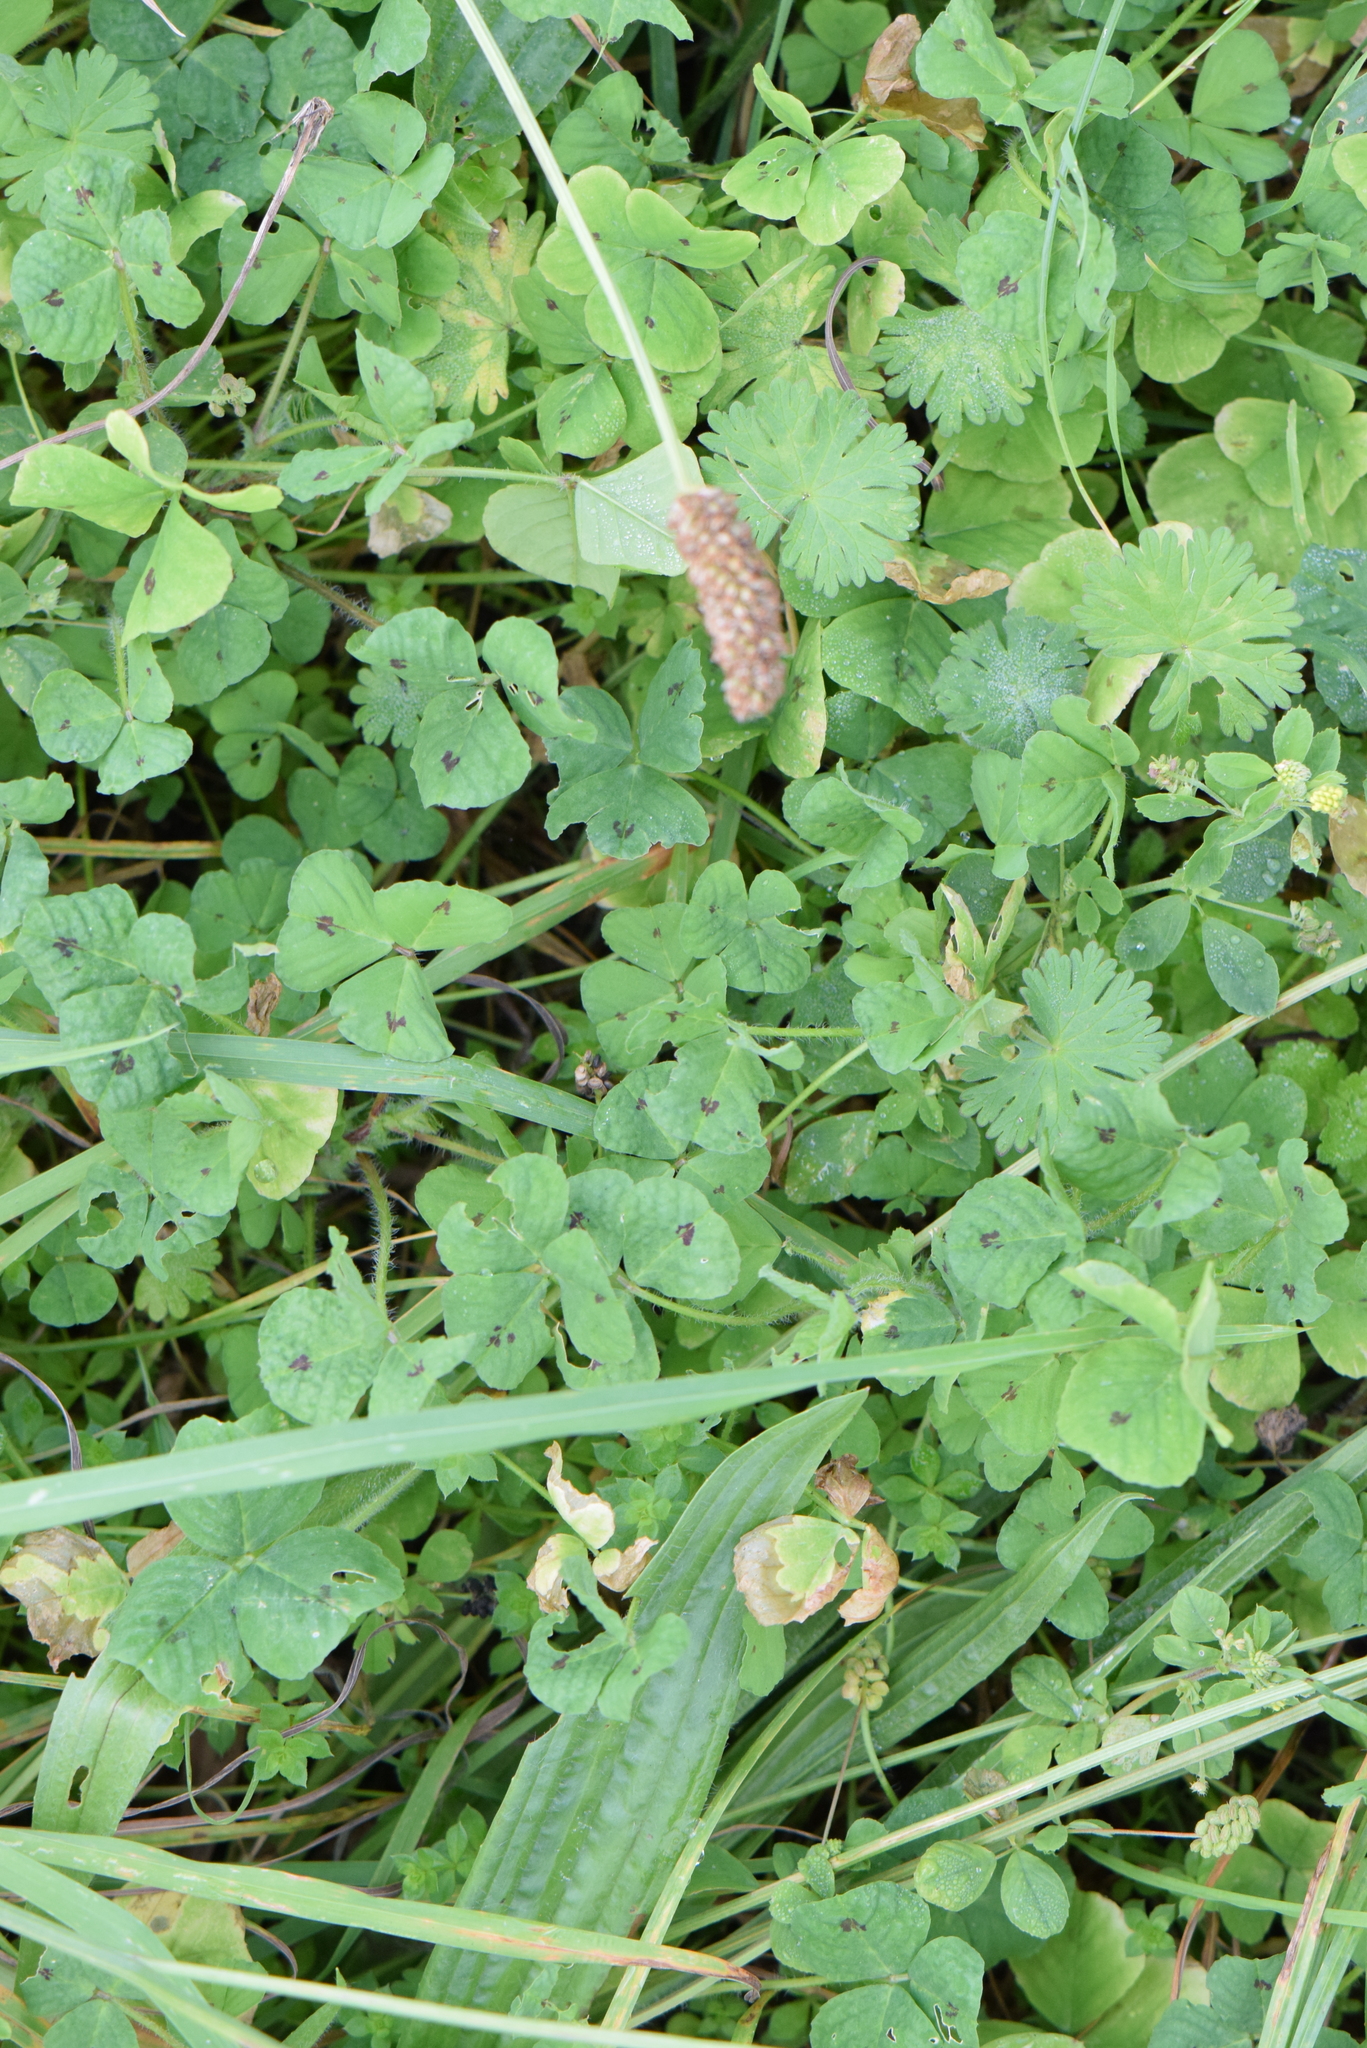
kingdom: Plantae
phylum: Tracheophyta
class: Magnoliopsida
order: Fabales
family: Fabaceae
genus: Medicago
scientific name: Medicago arabica
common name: Spotted medick
